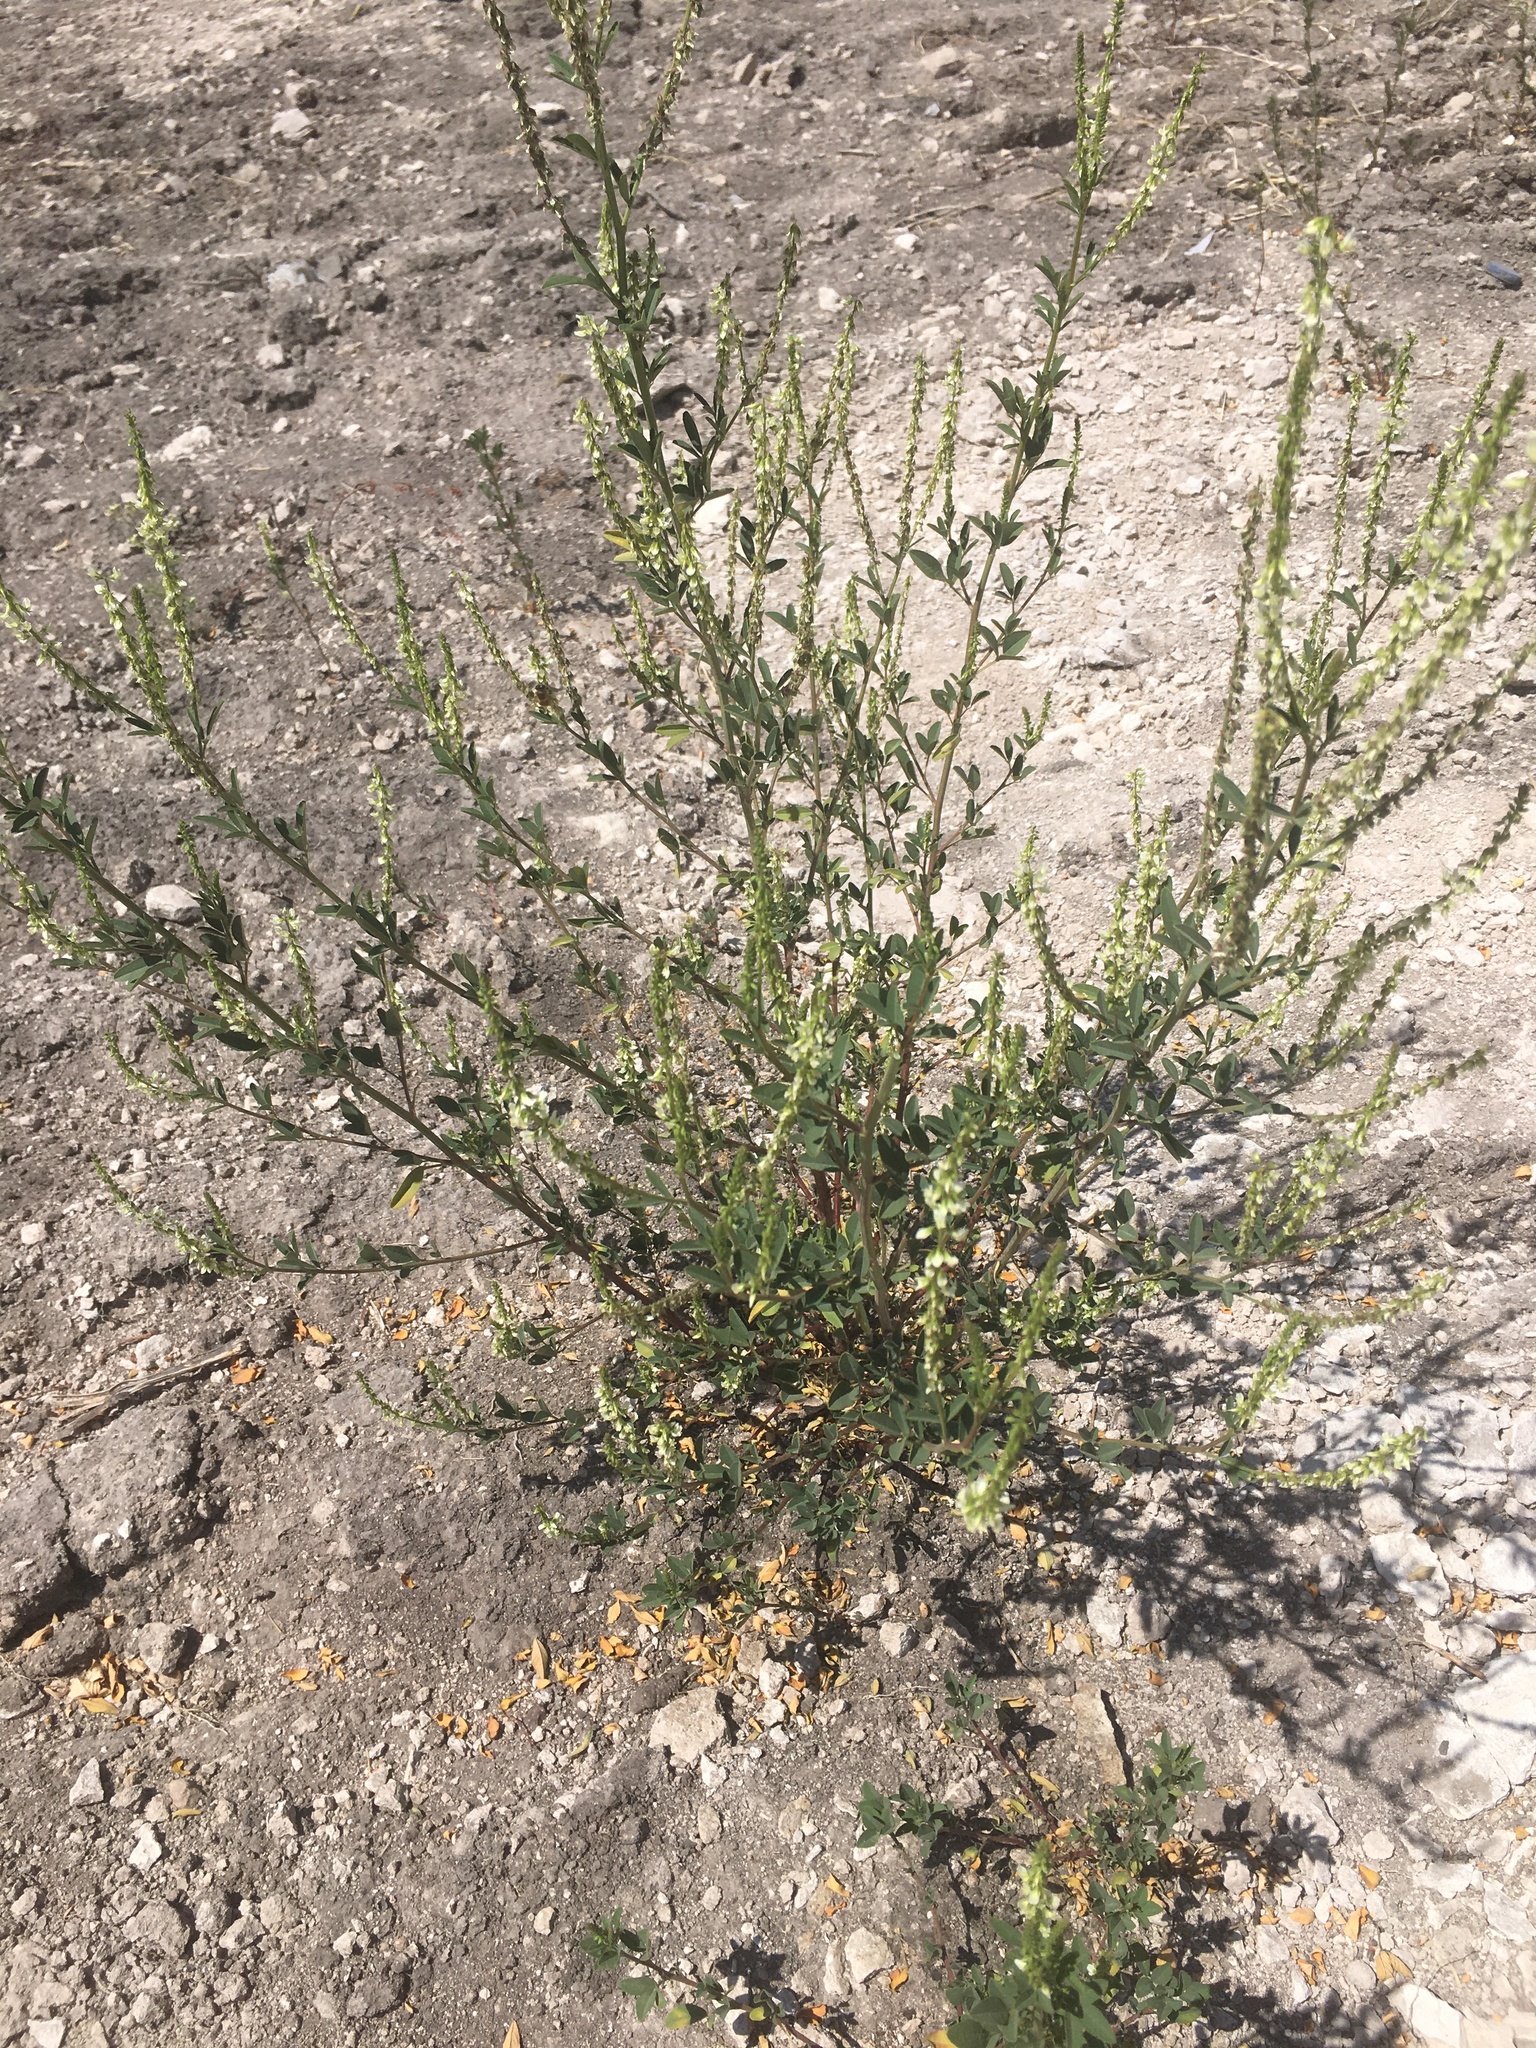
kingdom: Plantae
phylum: Tracheophyta
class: Magnoliopsida
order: Fabales
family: Fabaceae
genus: Melilotus
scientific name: Melilotus albus
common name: White melilot
